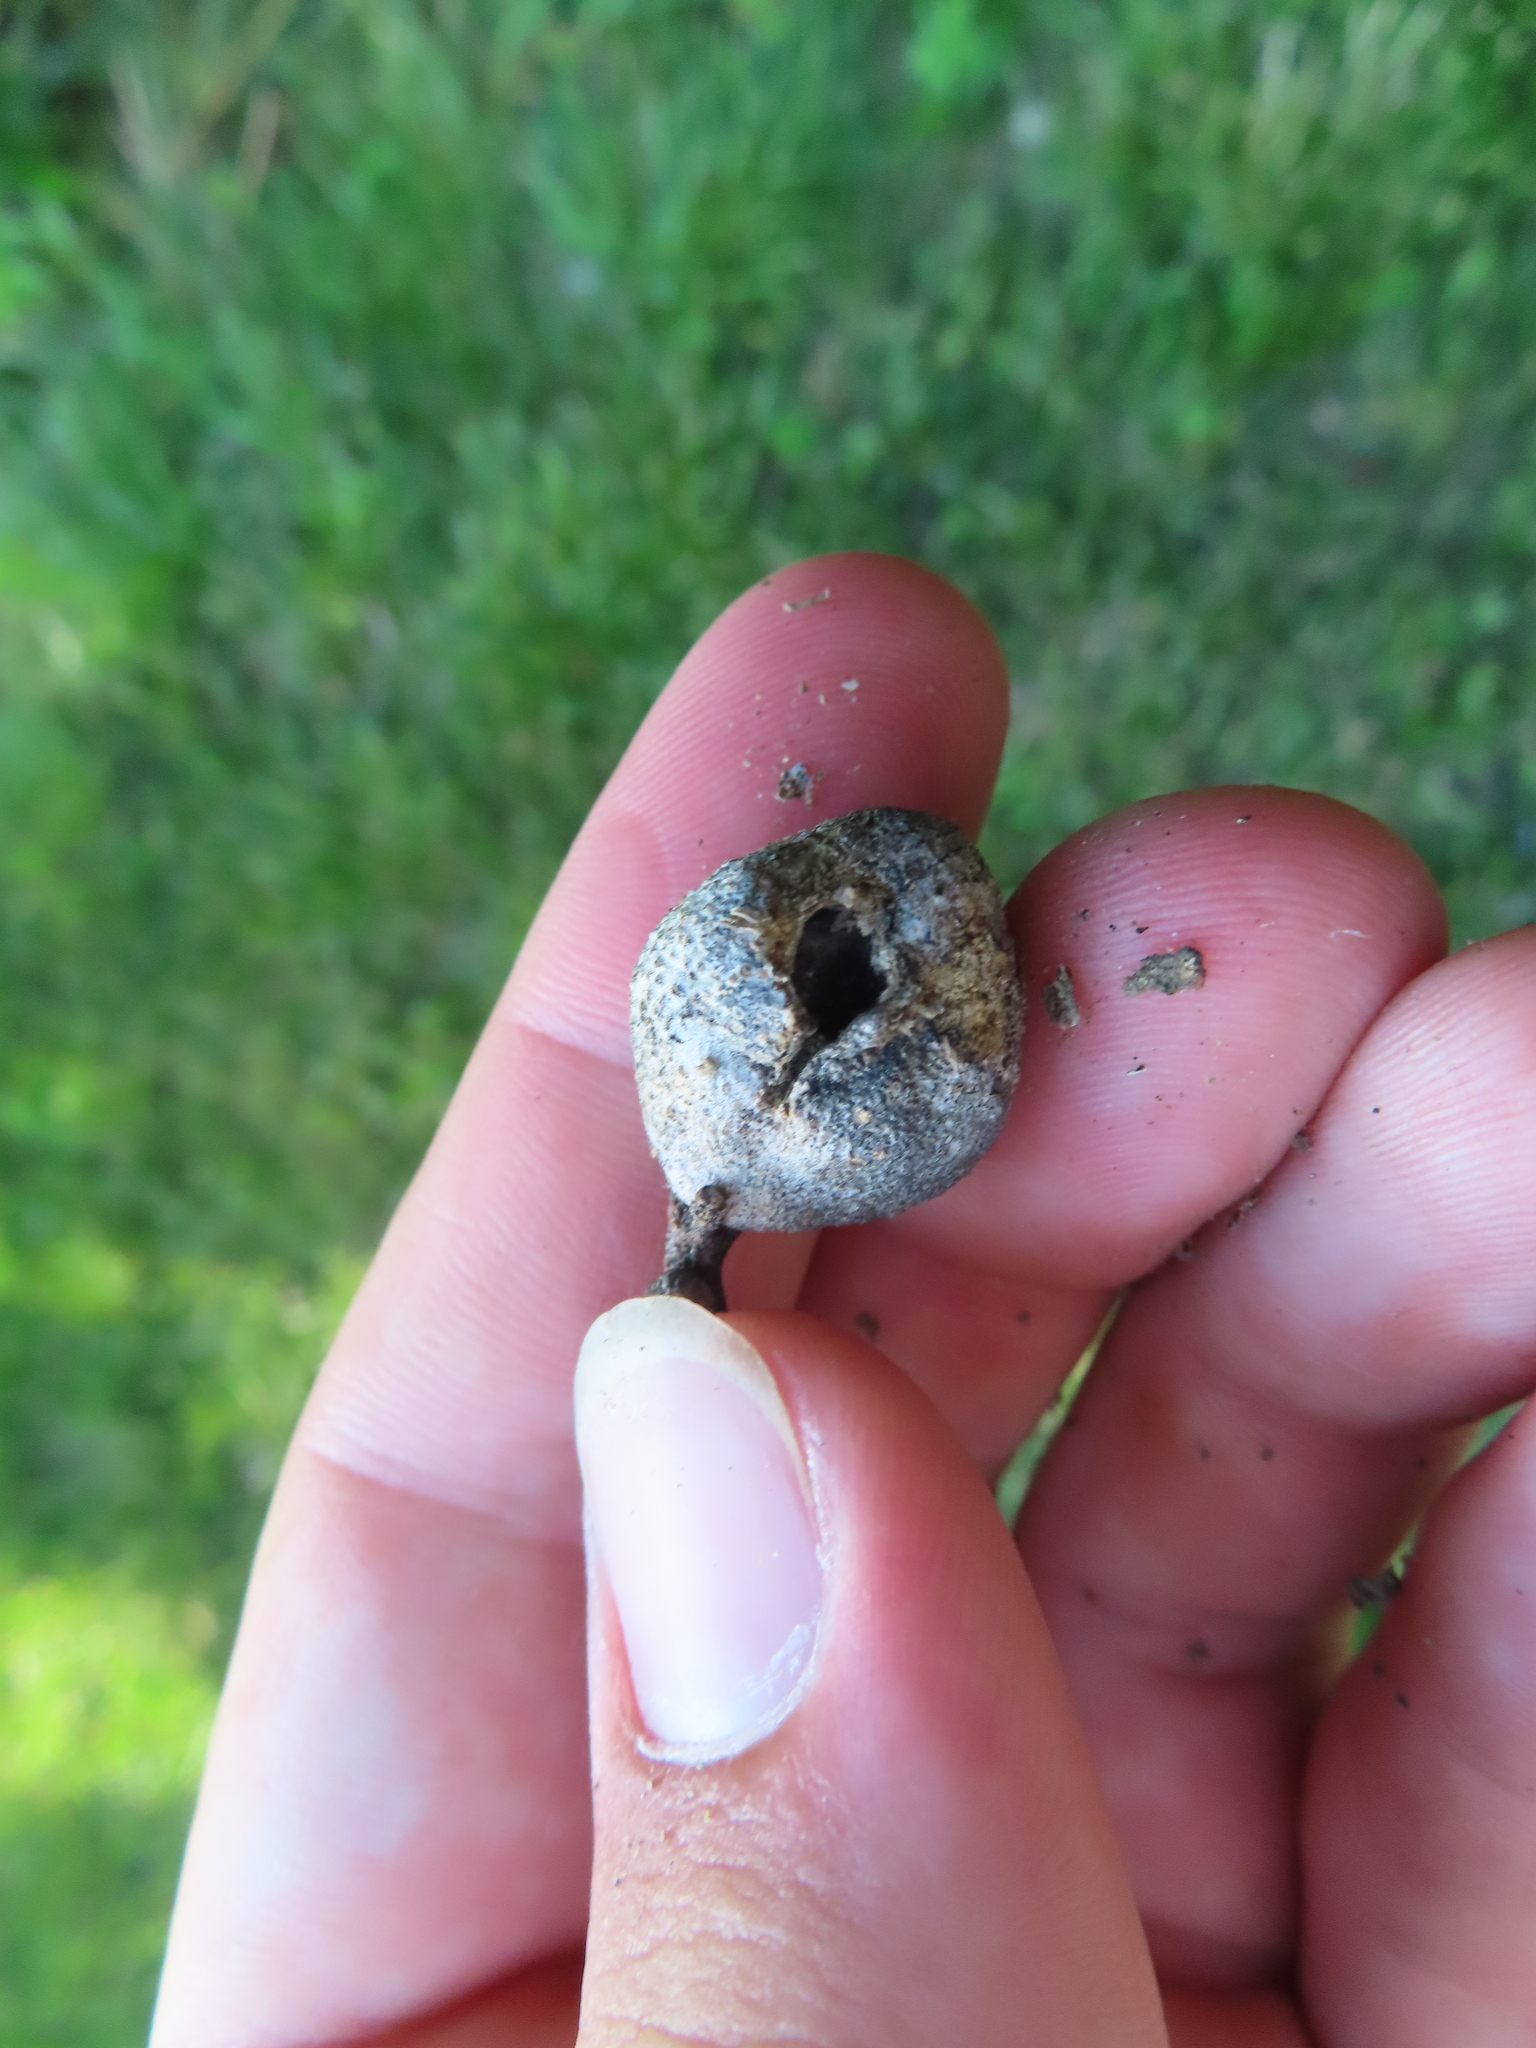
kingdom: Animalia
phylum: Arthropoda
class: Insecta
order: Hemiptera
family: Aphalaridae
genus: Pachypsylla
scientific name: Pachypsylla venusta
